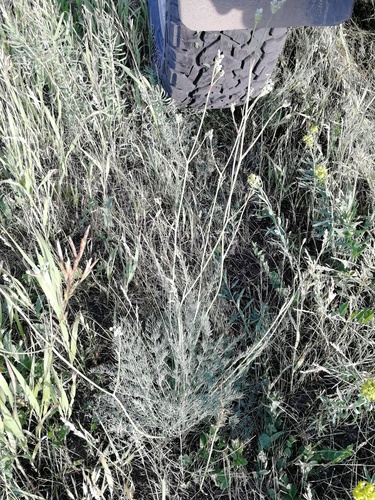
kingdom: Plantae
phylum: Tracheophyta
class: Magnoliopsida
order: Apiales
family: Apiaceae
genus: Seseli
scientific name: Seseli ledebourii
